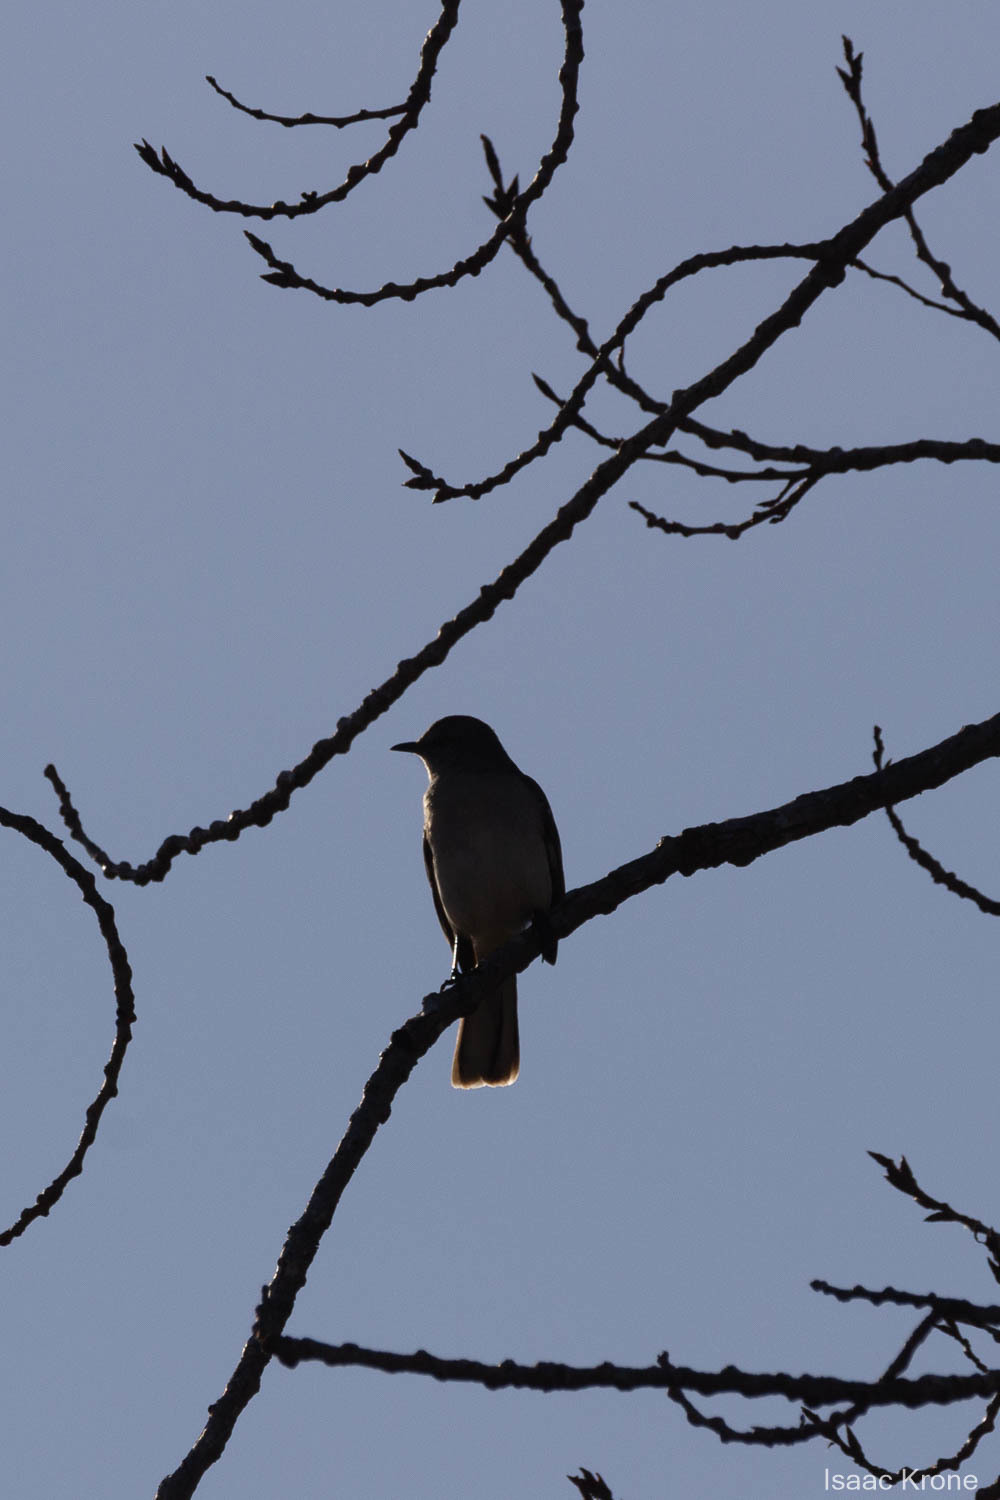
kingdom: Animalia
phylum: Chordata
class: Aves
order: Passeriformes
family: Mimidae
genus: Mimus
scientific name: Mimus polyglottos
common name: Northern mockingbird
